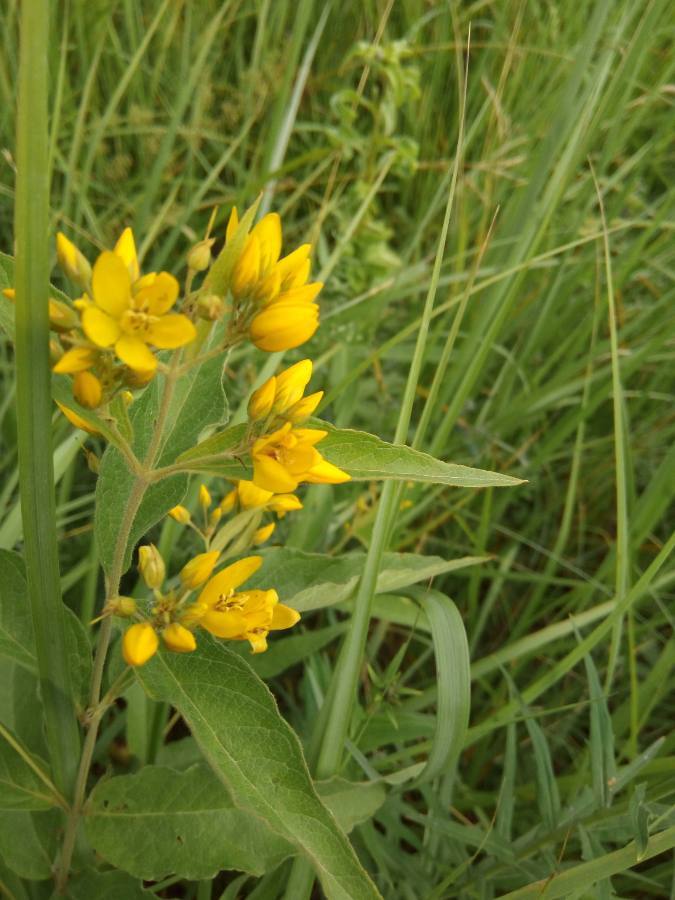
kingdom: Plantae
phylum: Tracheophyta
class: Magnoliopsida
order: Ericales
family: Primulaceae
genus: Lysimachia
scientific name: Lysimachia vulgaris
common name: Yellow loosestrife
